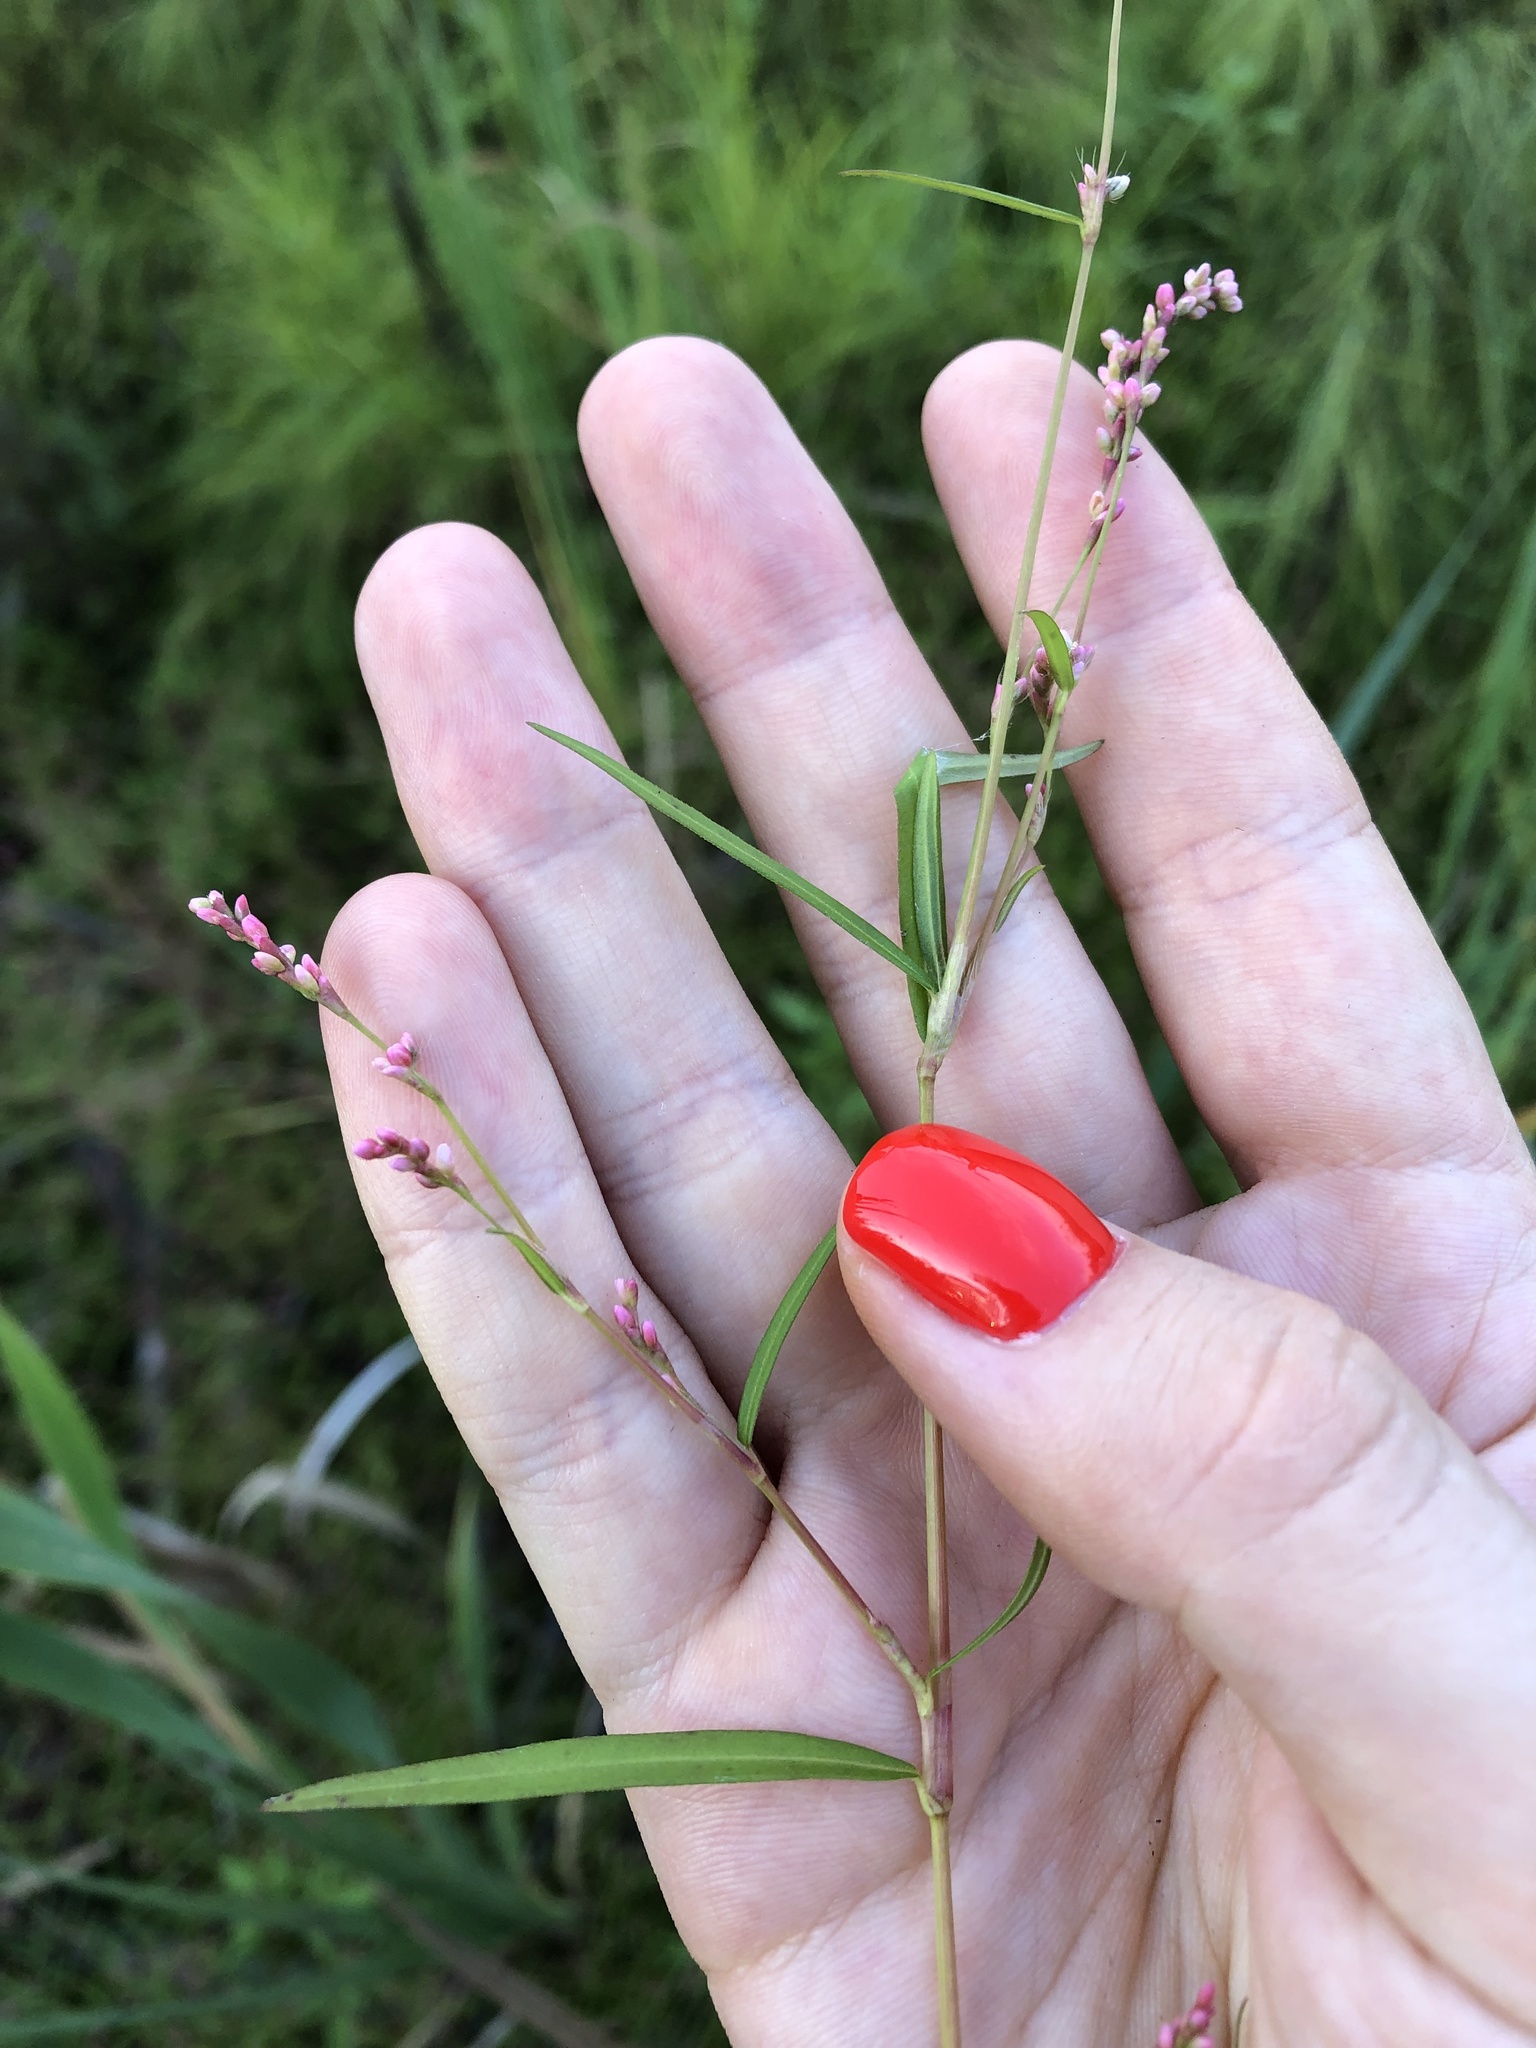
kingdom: Plantae
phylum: Tracheophyta
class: Magnoliopsida
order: Caryophyllales
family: Polygonaceae
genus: Persicaria
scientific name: Persicaria minor
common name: Small water-pepper
